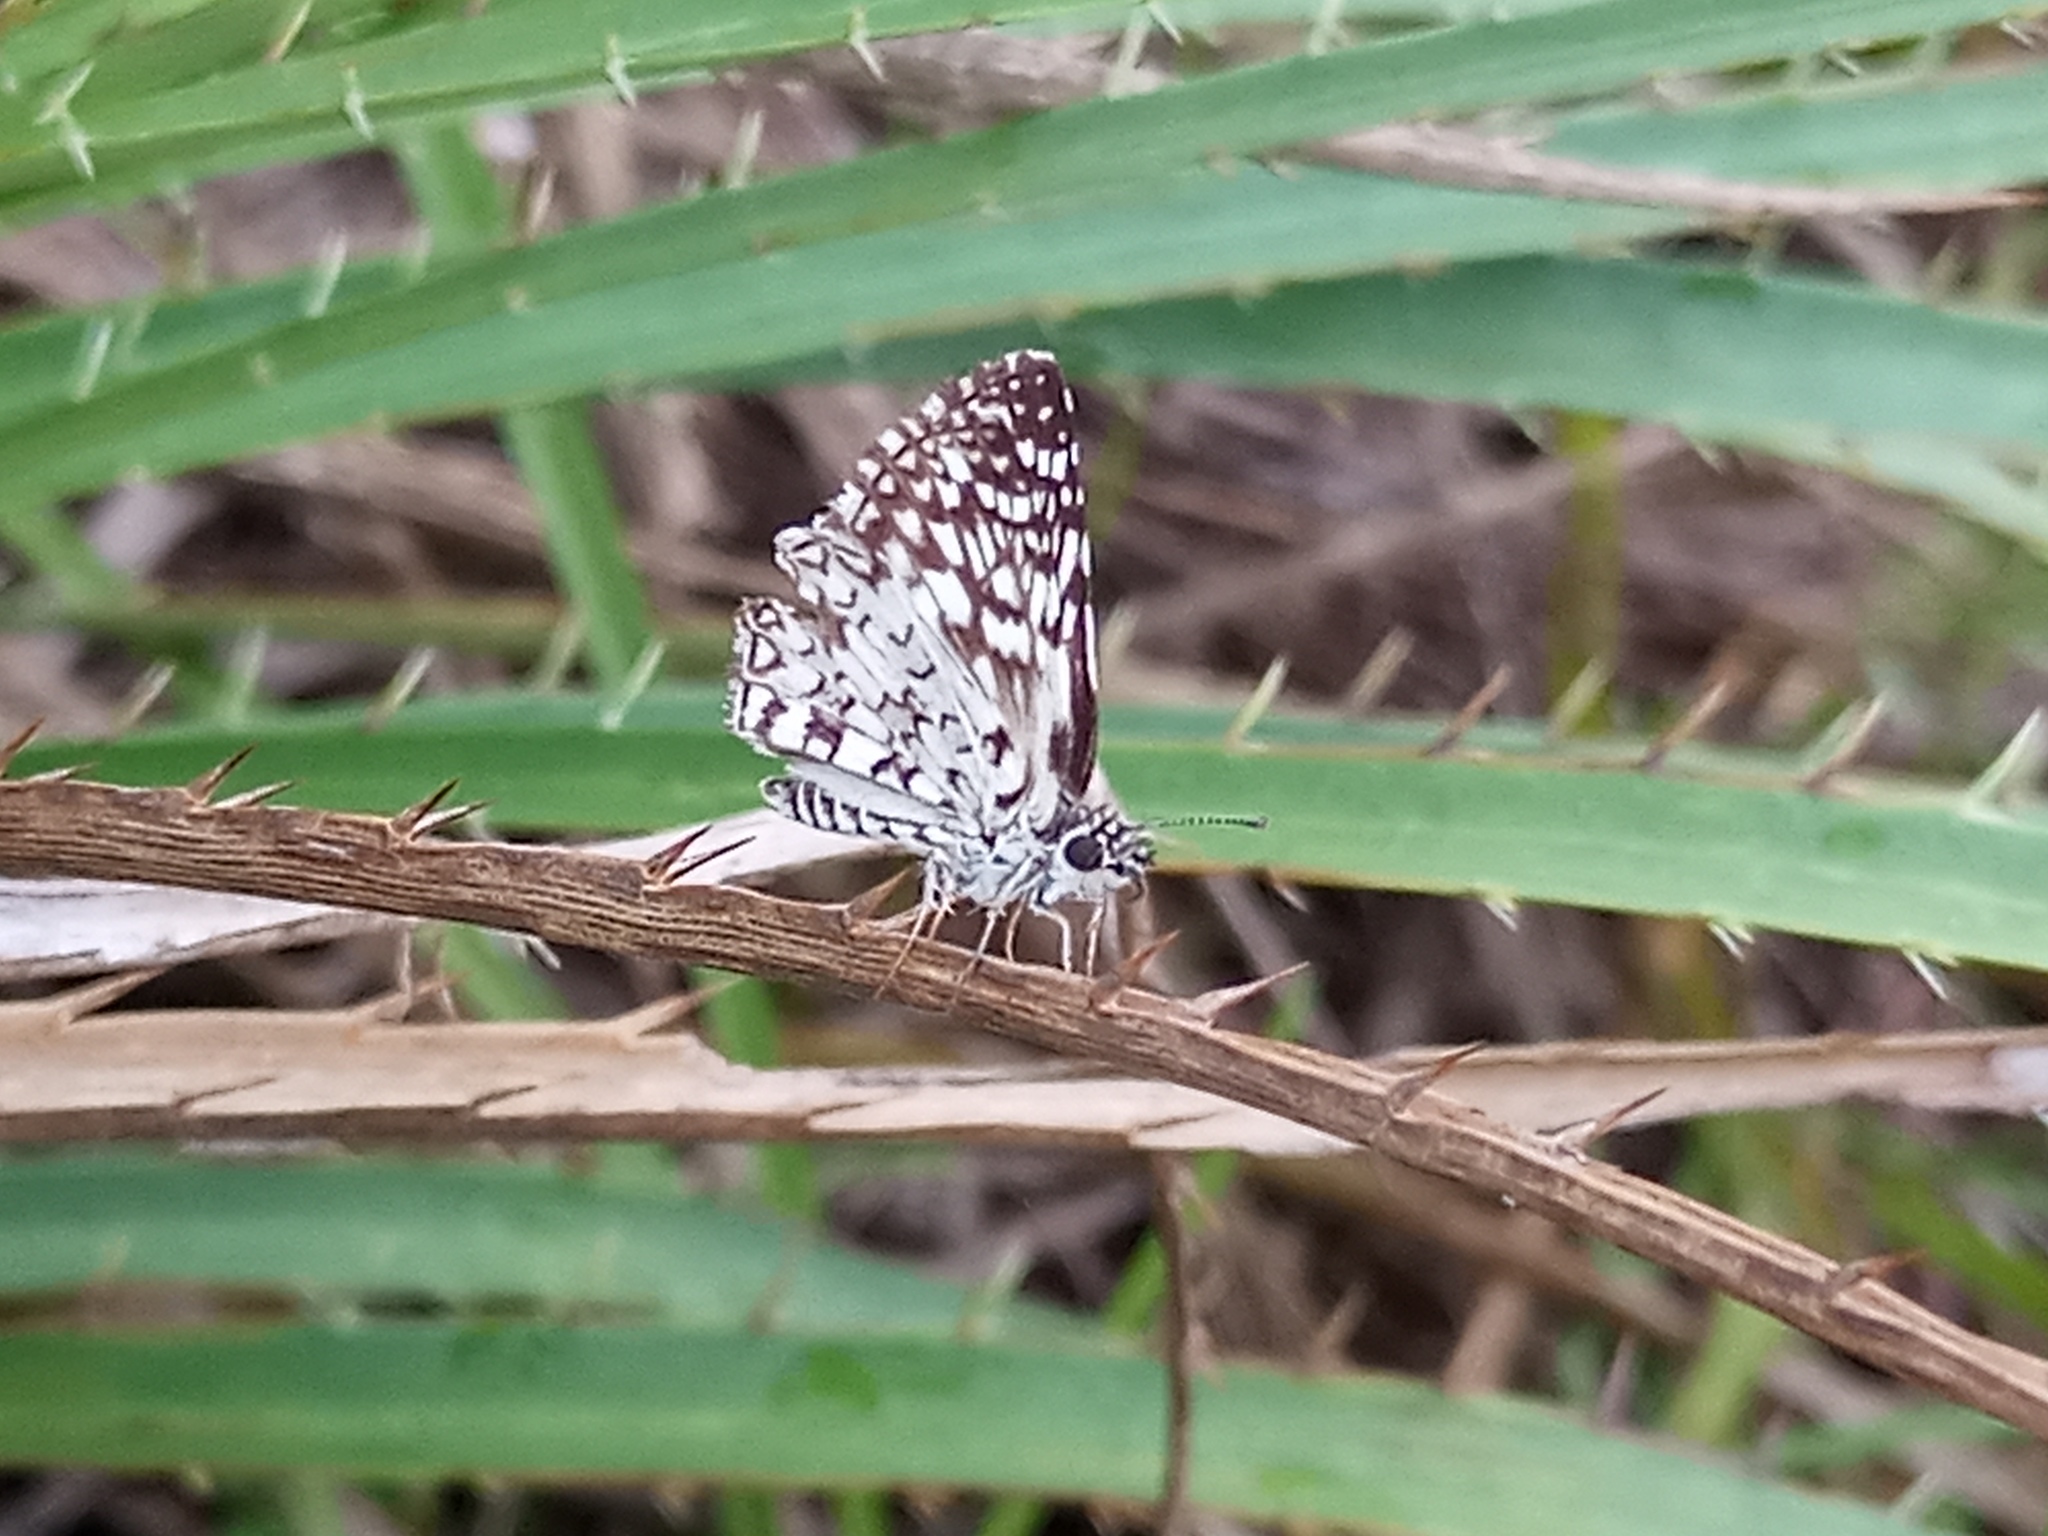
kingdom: Animalia
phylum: Arthropoda
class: Insecta
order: Lepidoptera
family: Hesperiidae
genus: Pyrgus
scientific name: Pyrgus oileus
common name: Tropical checkered-skipper
